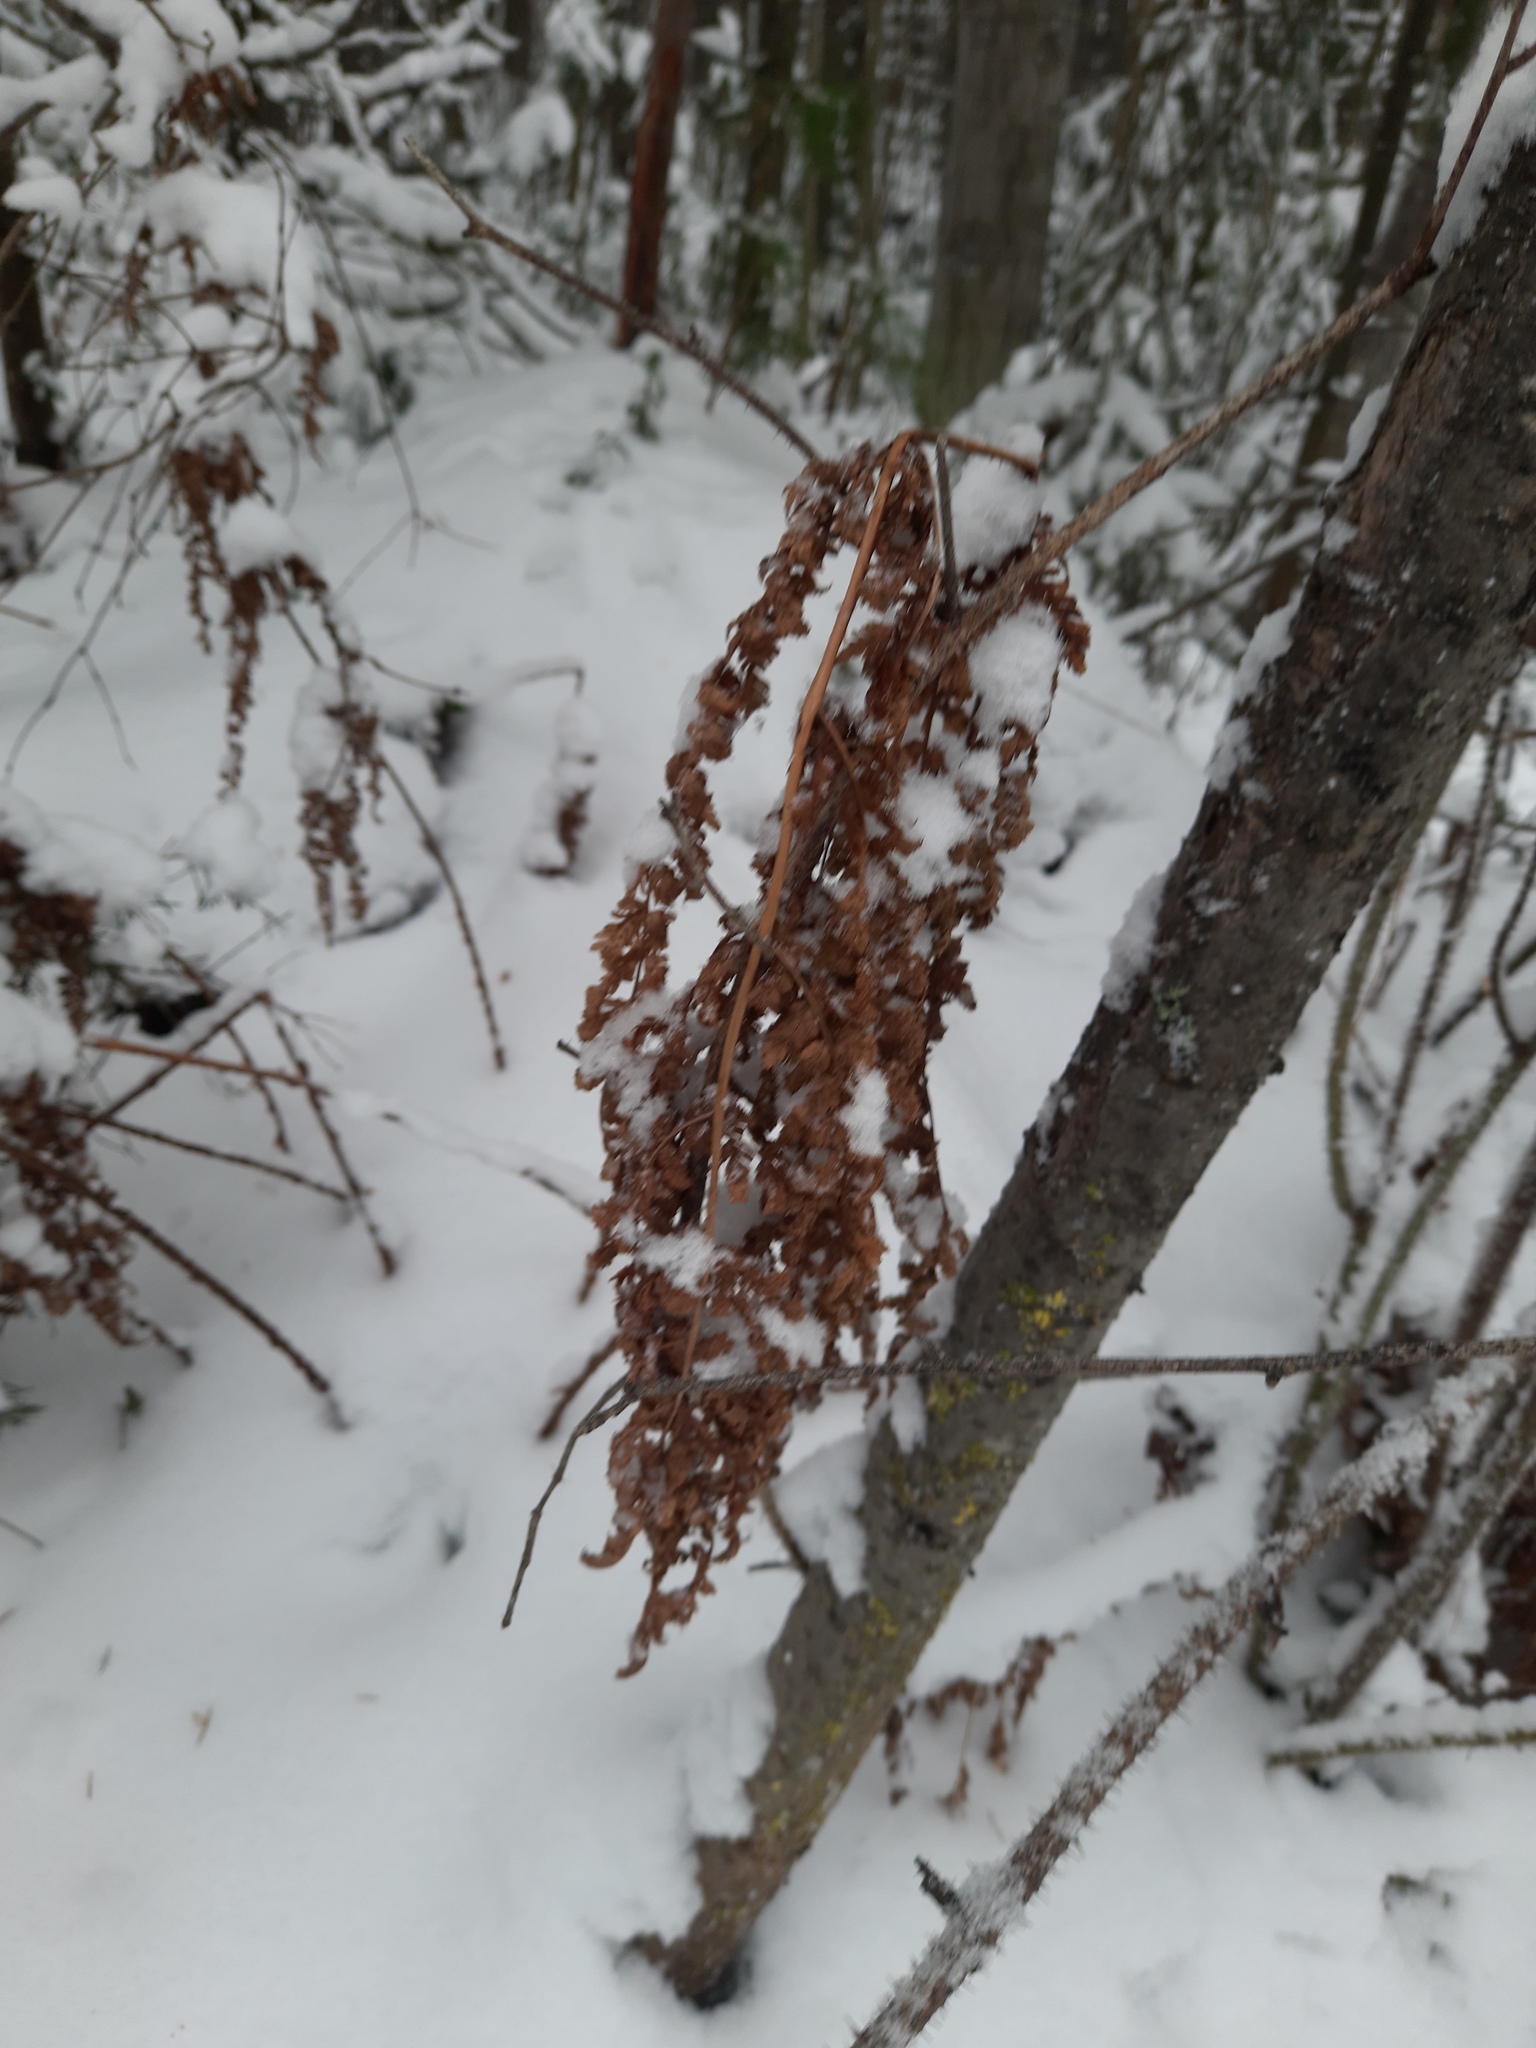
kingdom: Plantae
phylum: Tracheophyta
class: Polypodiopsida
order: Polypodiales
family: Dennstaedtiaceae
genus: Pteridium
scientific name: Pteridium aquilinum
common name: Bracken
